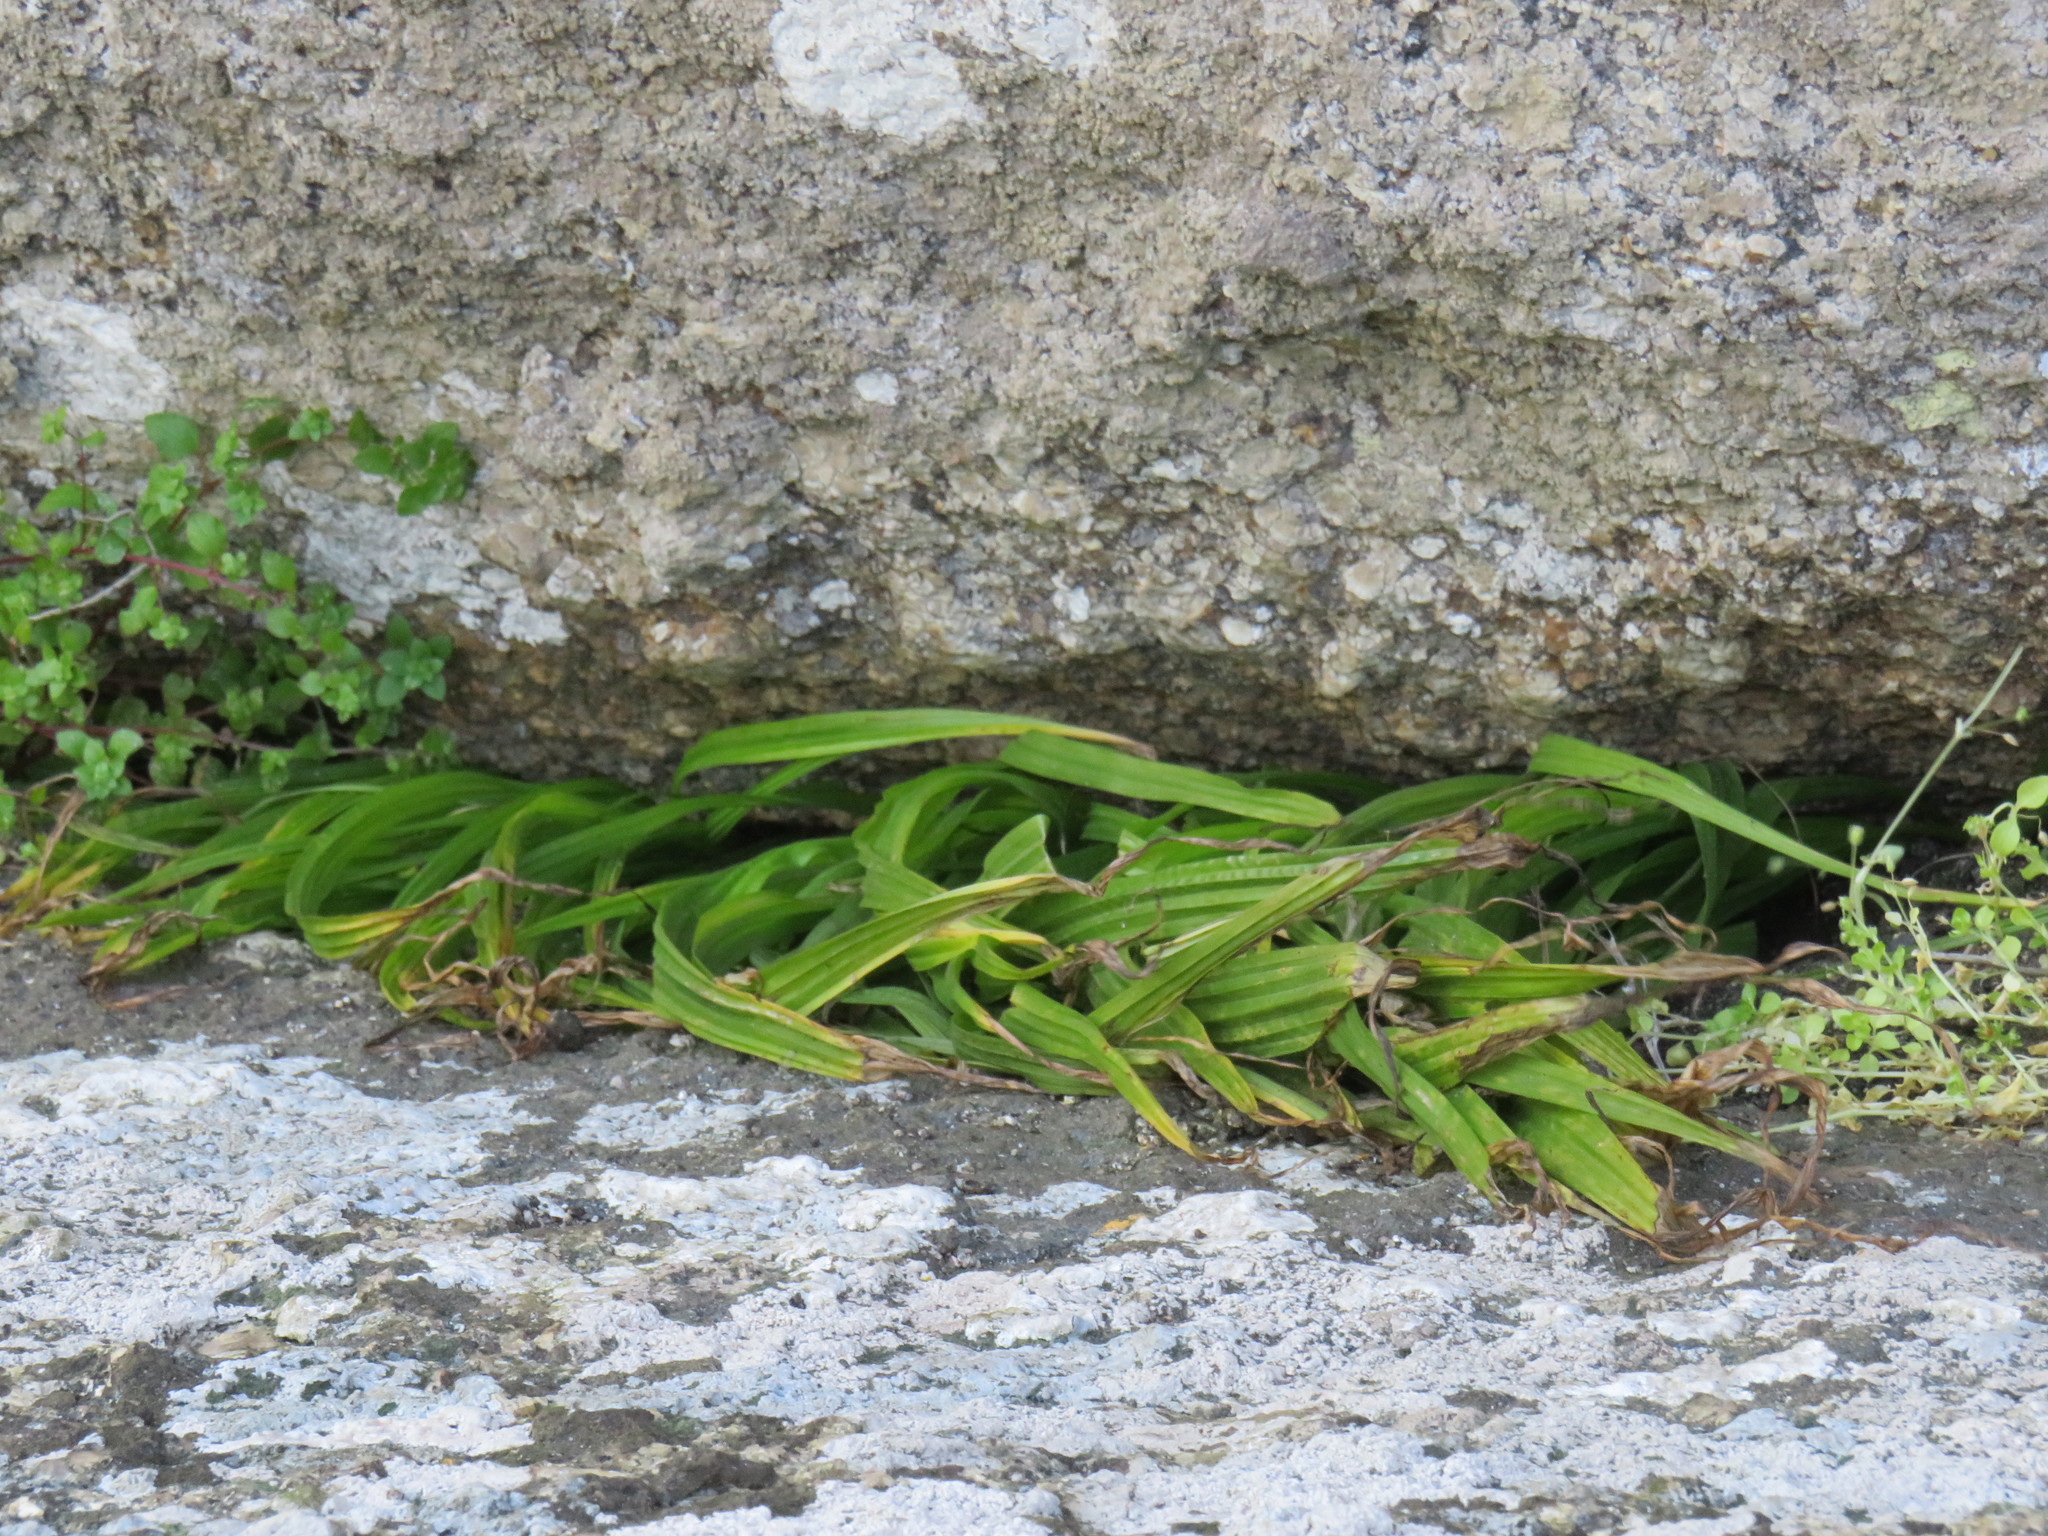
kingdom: Plantae
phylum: Tracheophyta
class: Liliopsida
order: Asparagales
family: Hypoxidaceae
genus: Empodium
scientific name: Empodium veratrifolium
